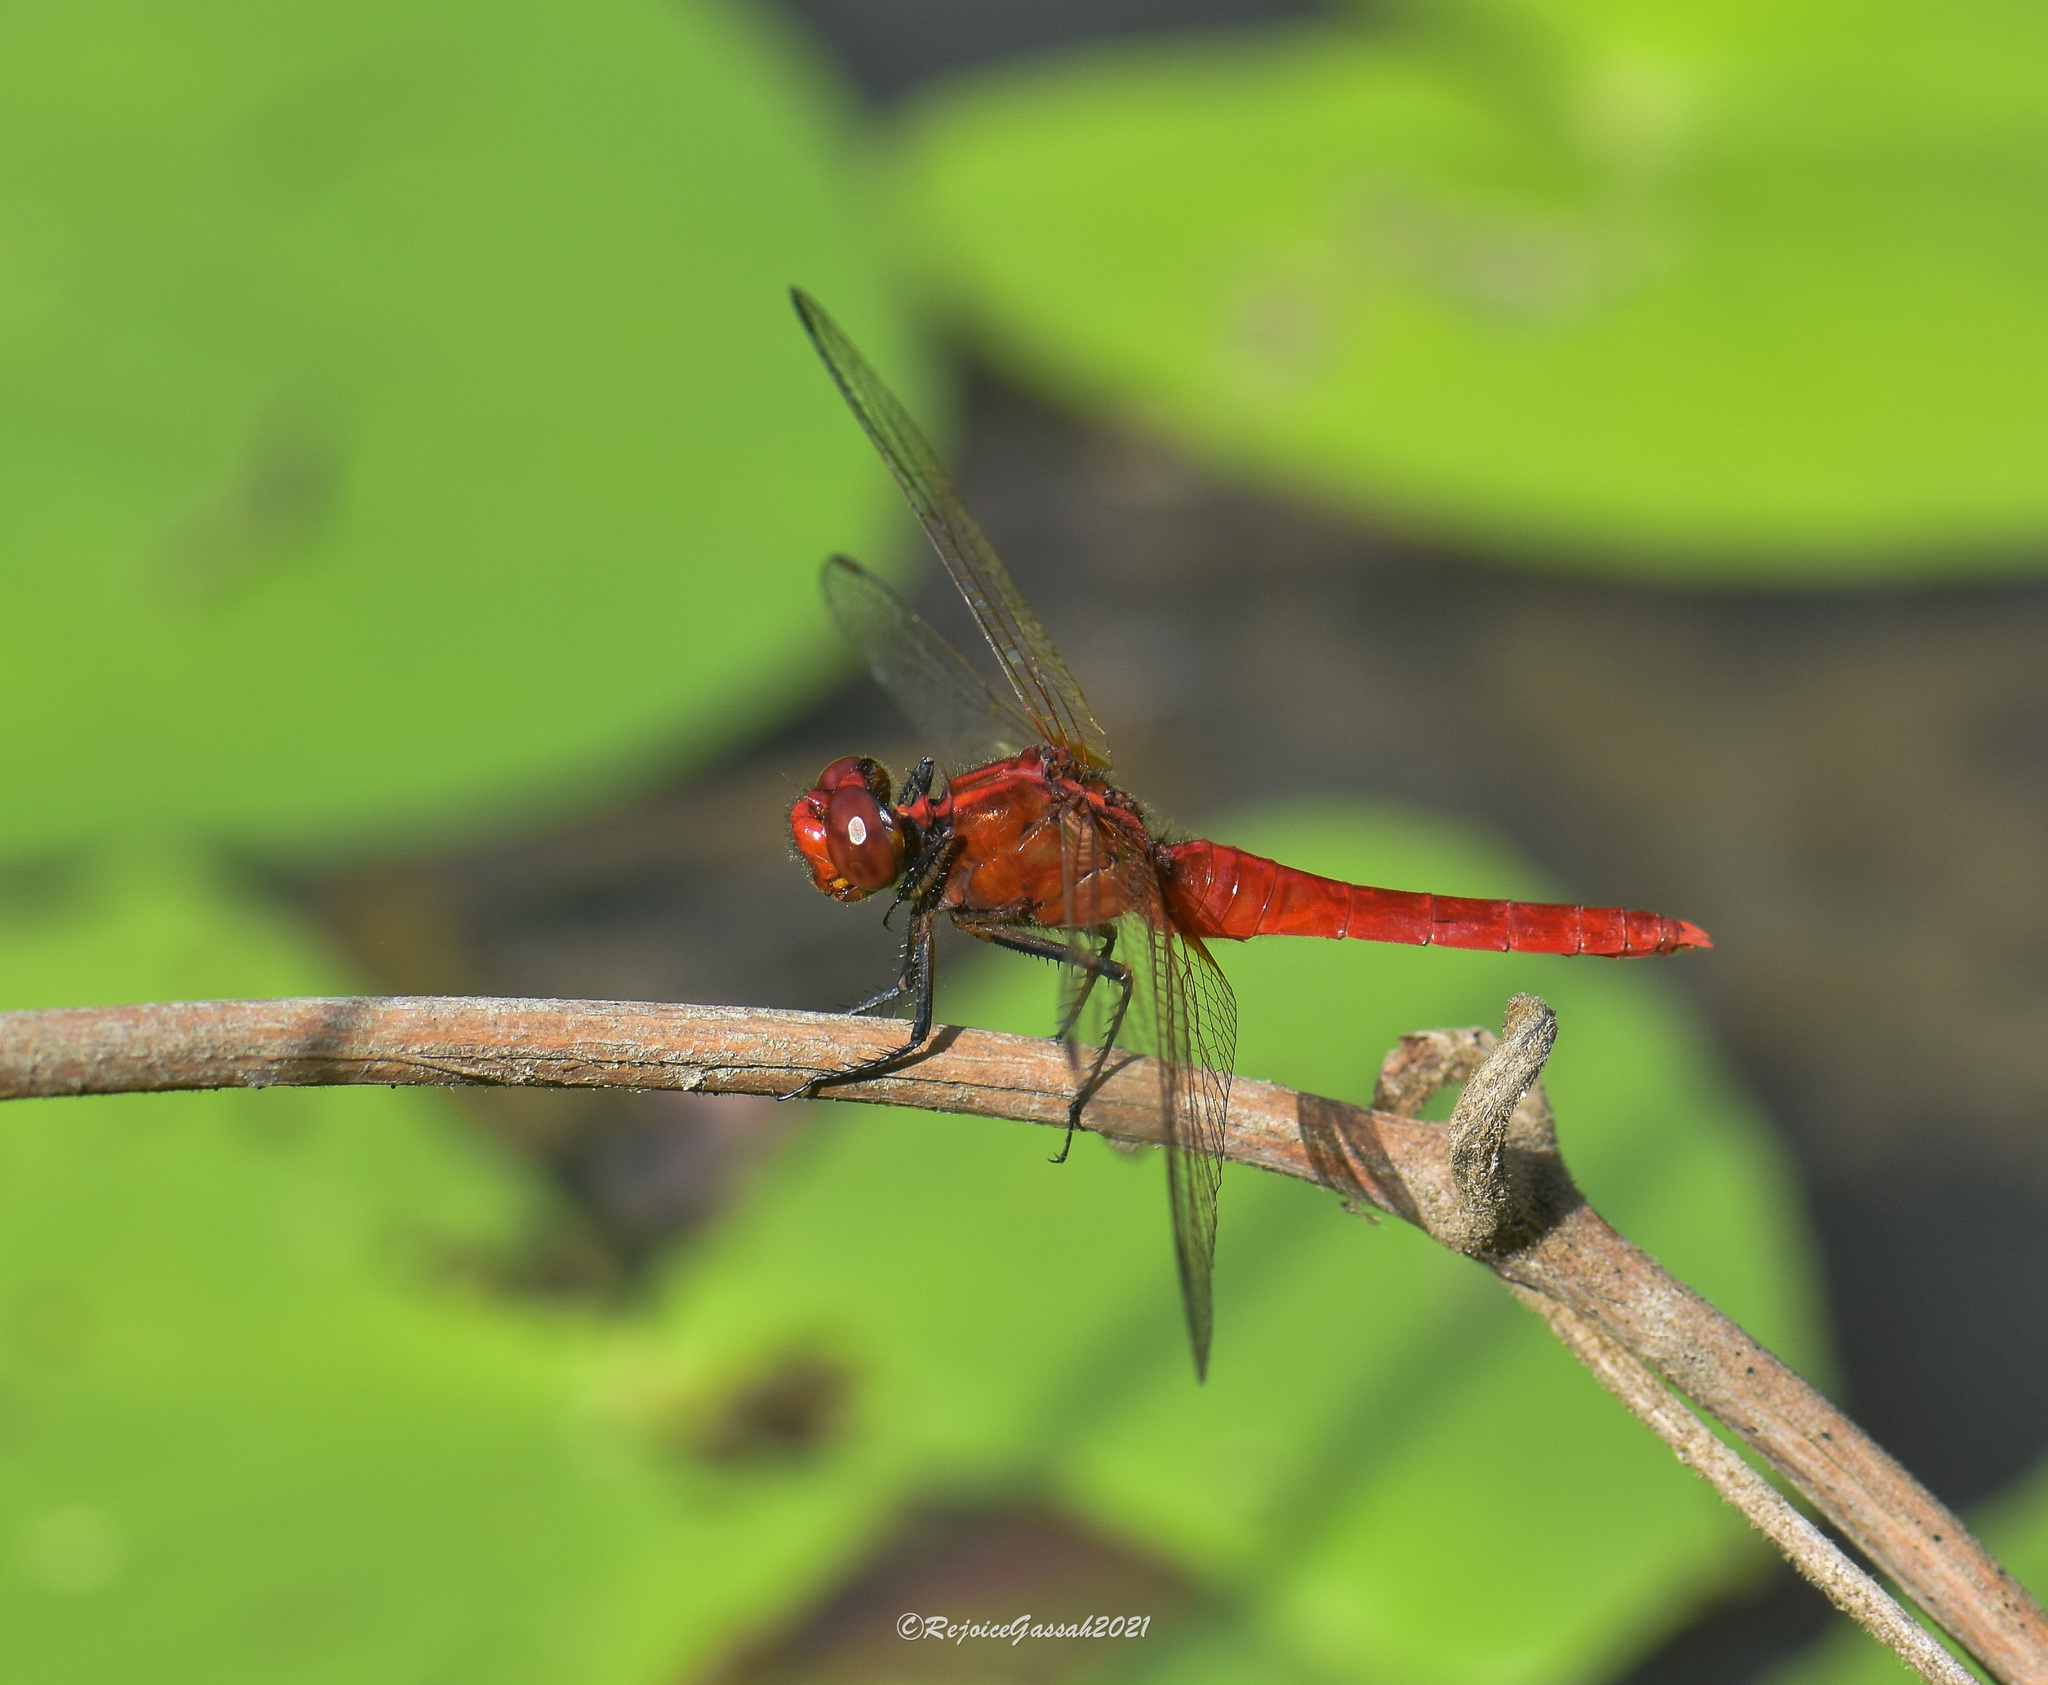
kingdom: Animalia
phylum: Arthropoda
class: Insecta
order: Odonata
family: Libellulidae
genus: Rhodothemis
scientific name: Rhodothemis rufa
